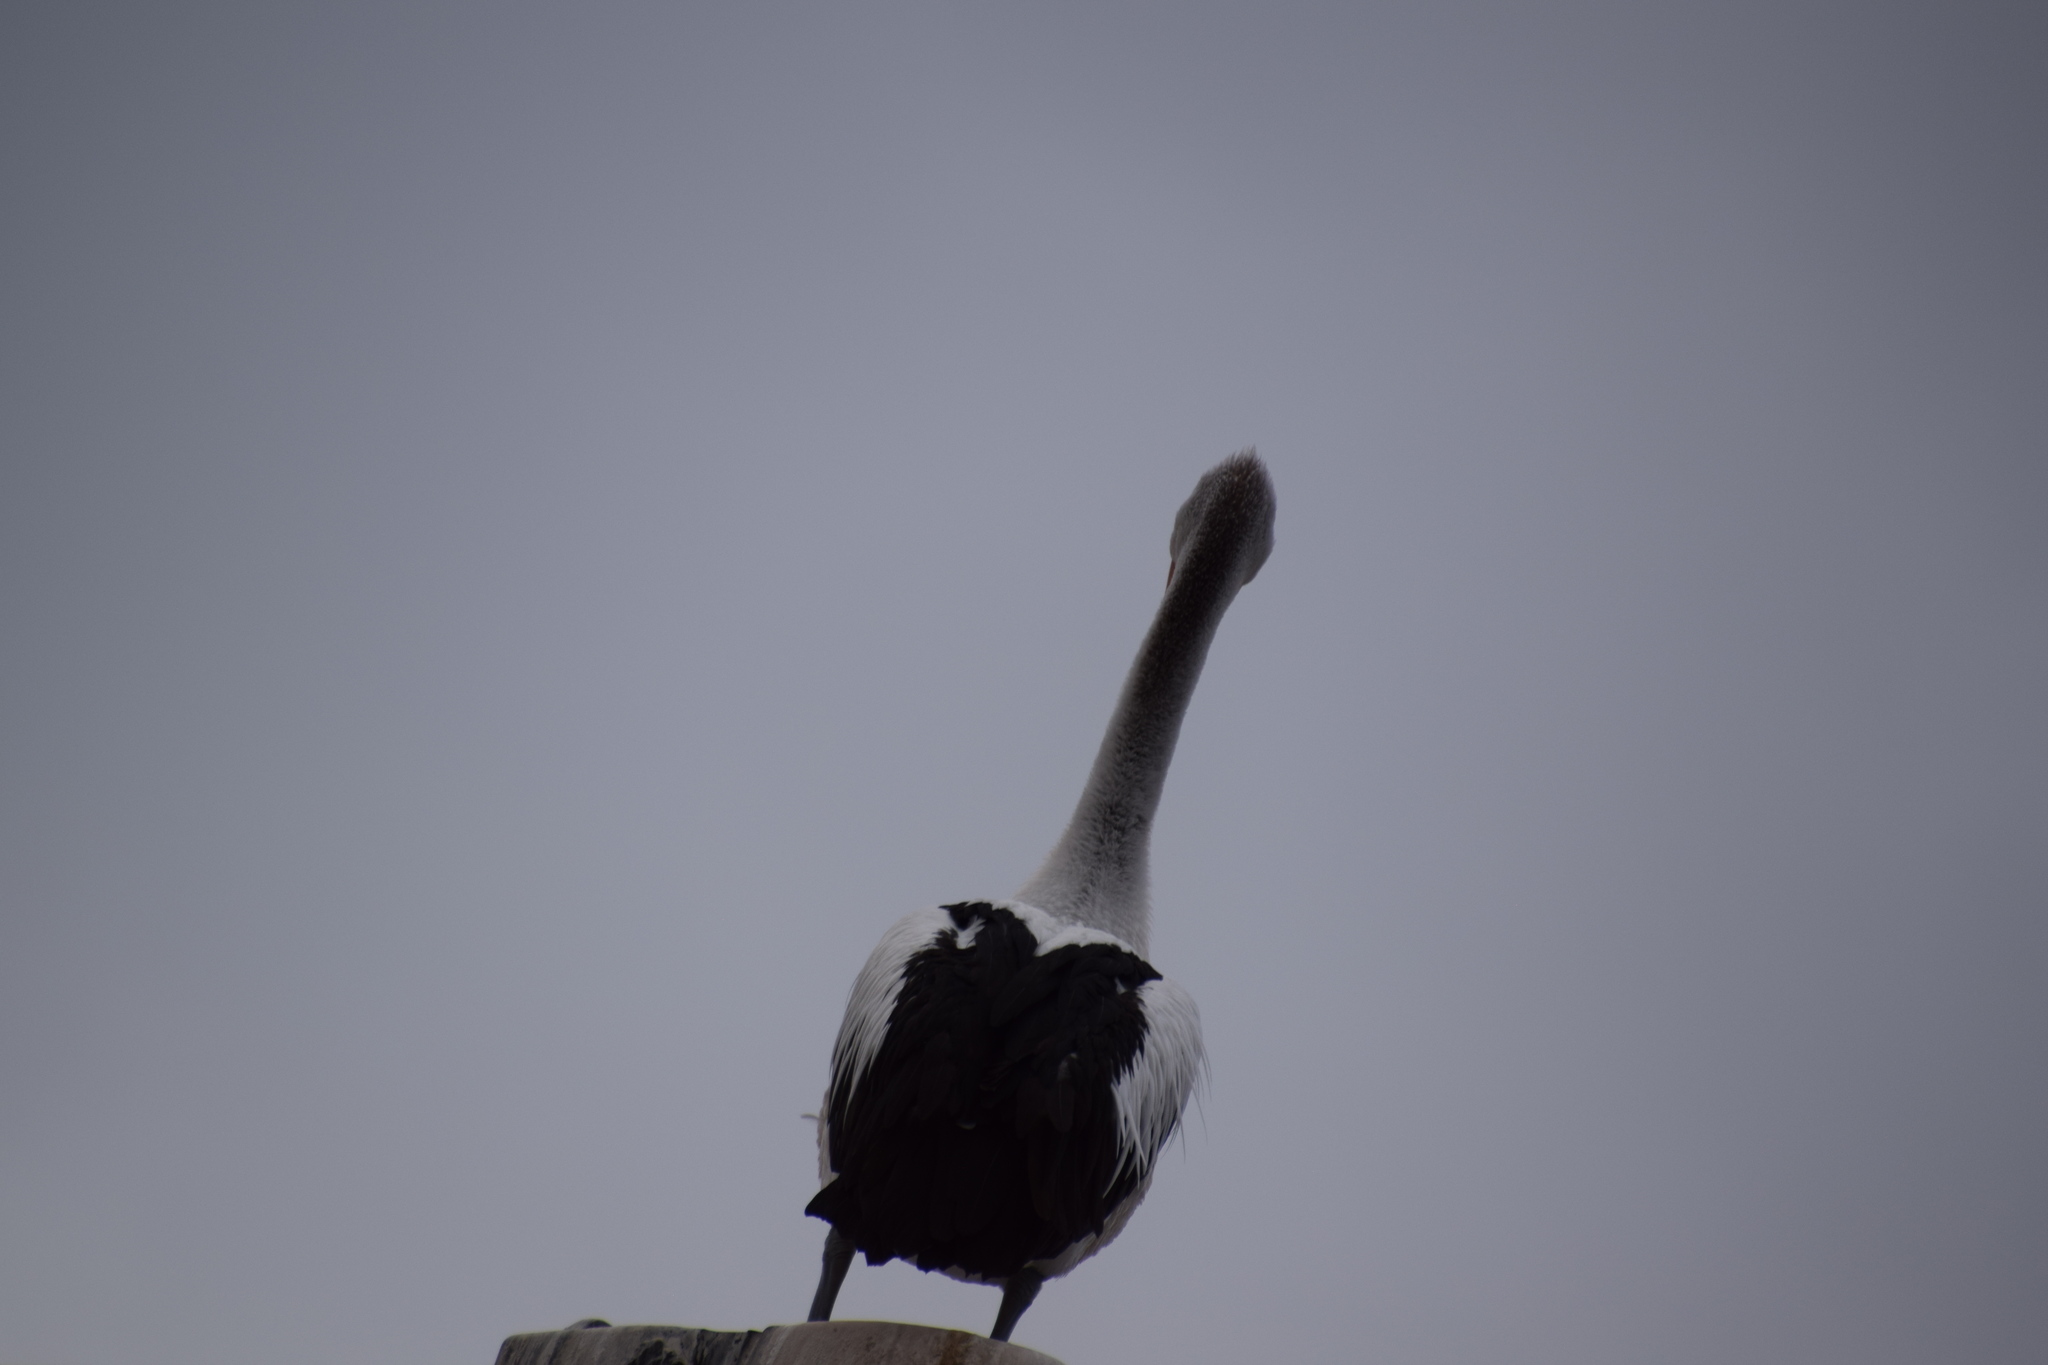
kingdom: Animalia
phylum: Chordata
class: Aves
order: Pelecaniformes
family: Pelecanidae
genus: Pelecanus
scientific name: Pelecanus conspicillatus
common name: Australian pelican
